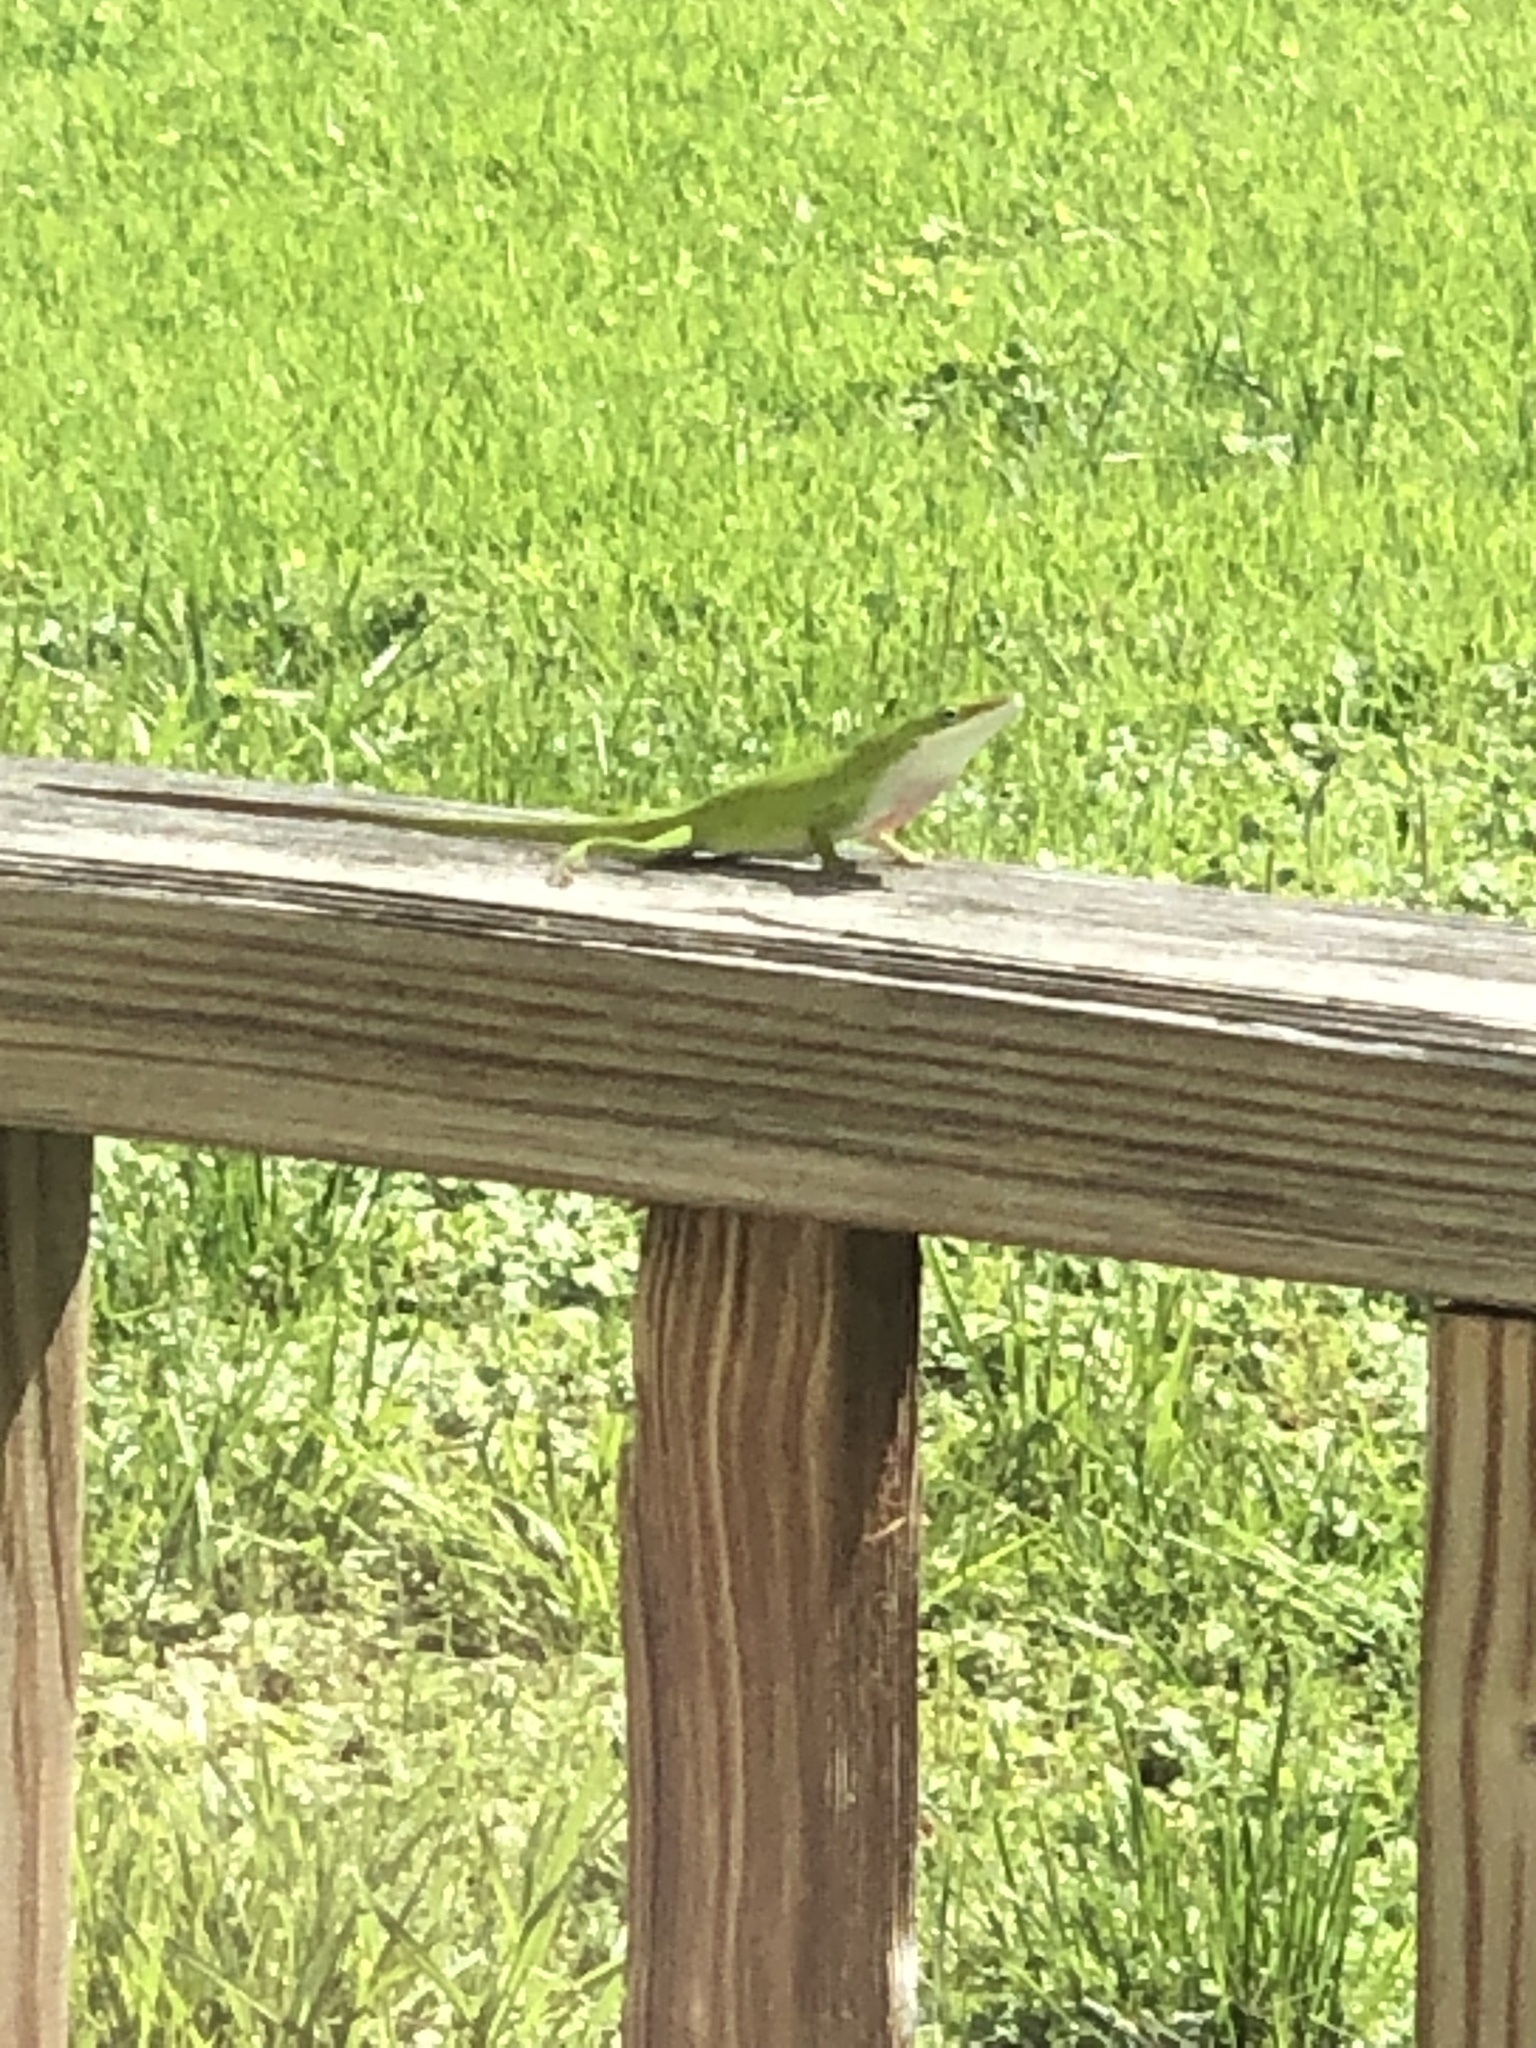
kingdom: Animalia
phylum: Chordata
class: Squamata
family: Dactyloidae
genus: Anolis
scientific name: Anolis carolinensis
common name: Green anole
